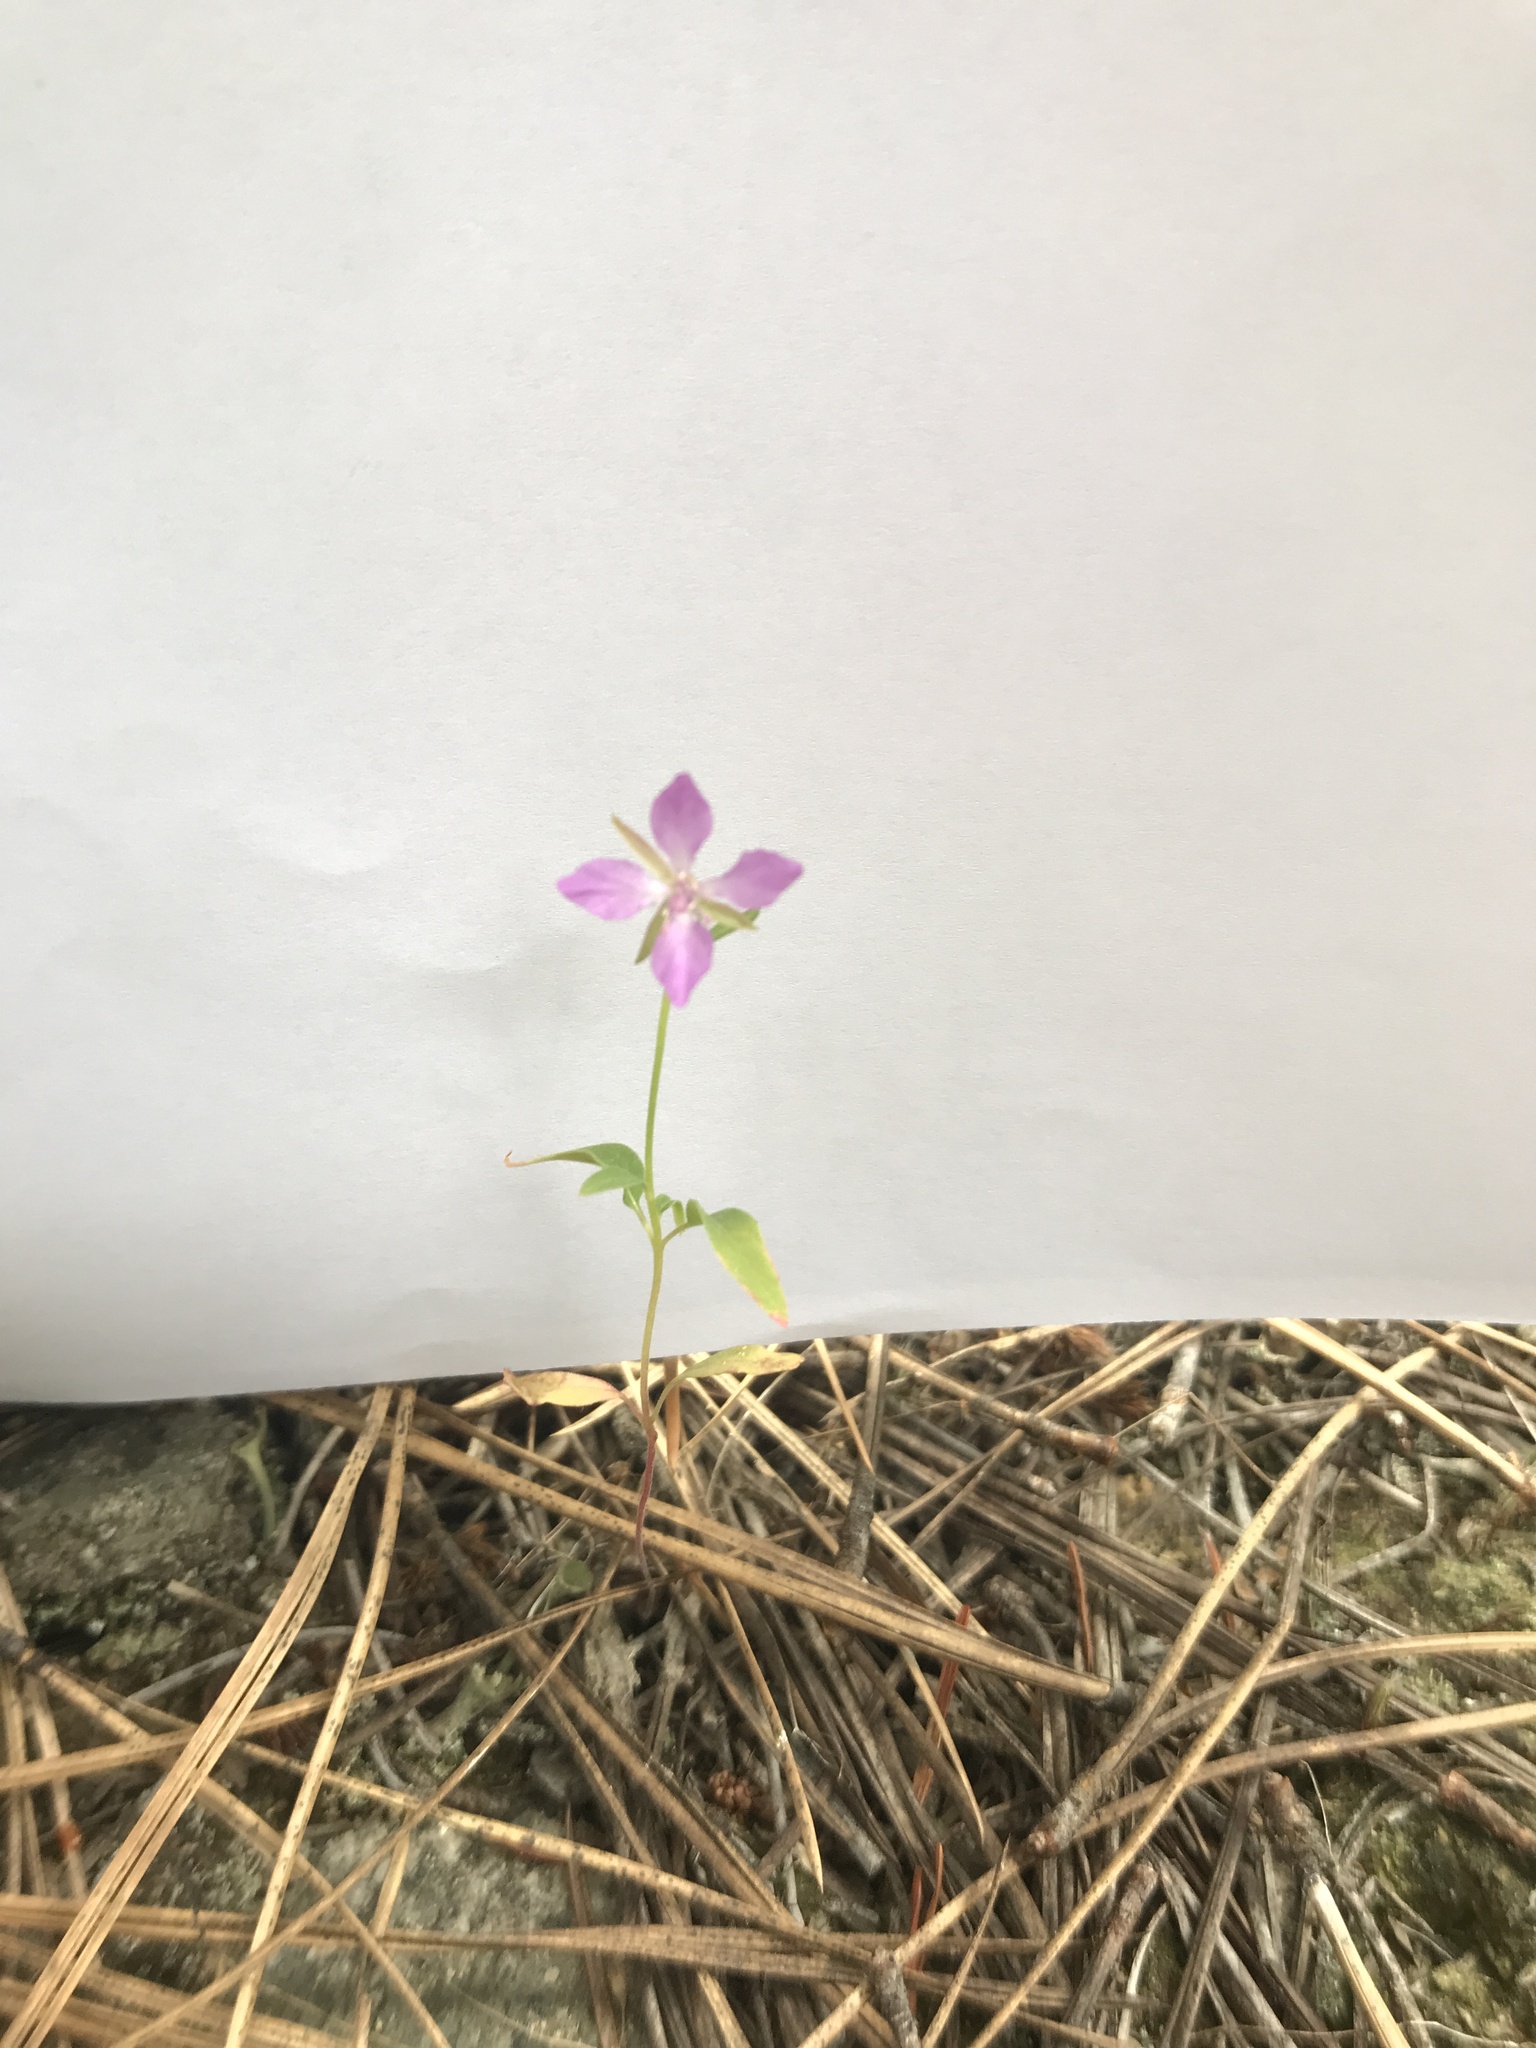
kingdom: Plantae
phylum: Tracheophyta
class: Magnoliopsida
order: Myrtales
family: Onagraceae
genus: Clarkia
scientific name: Clarkia rhomboidea
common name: Broadleaf clarkia
